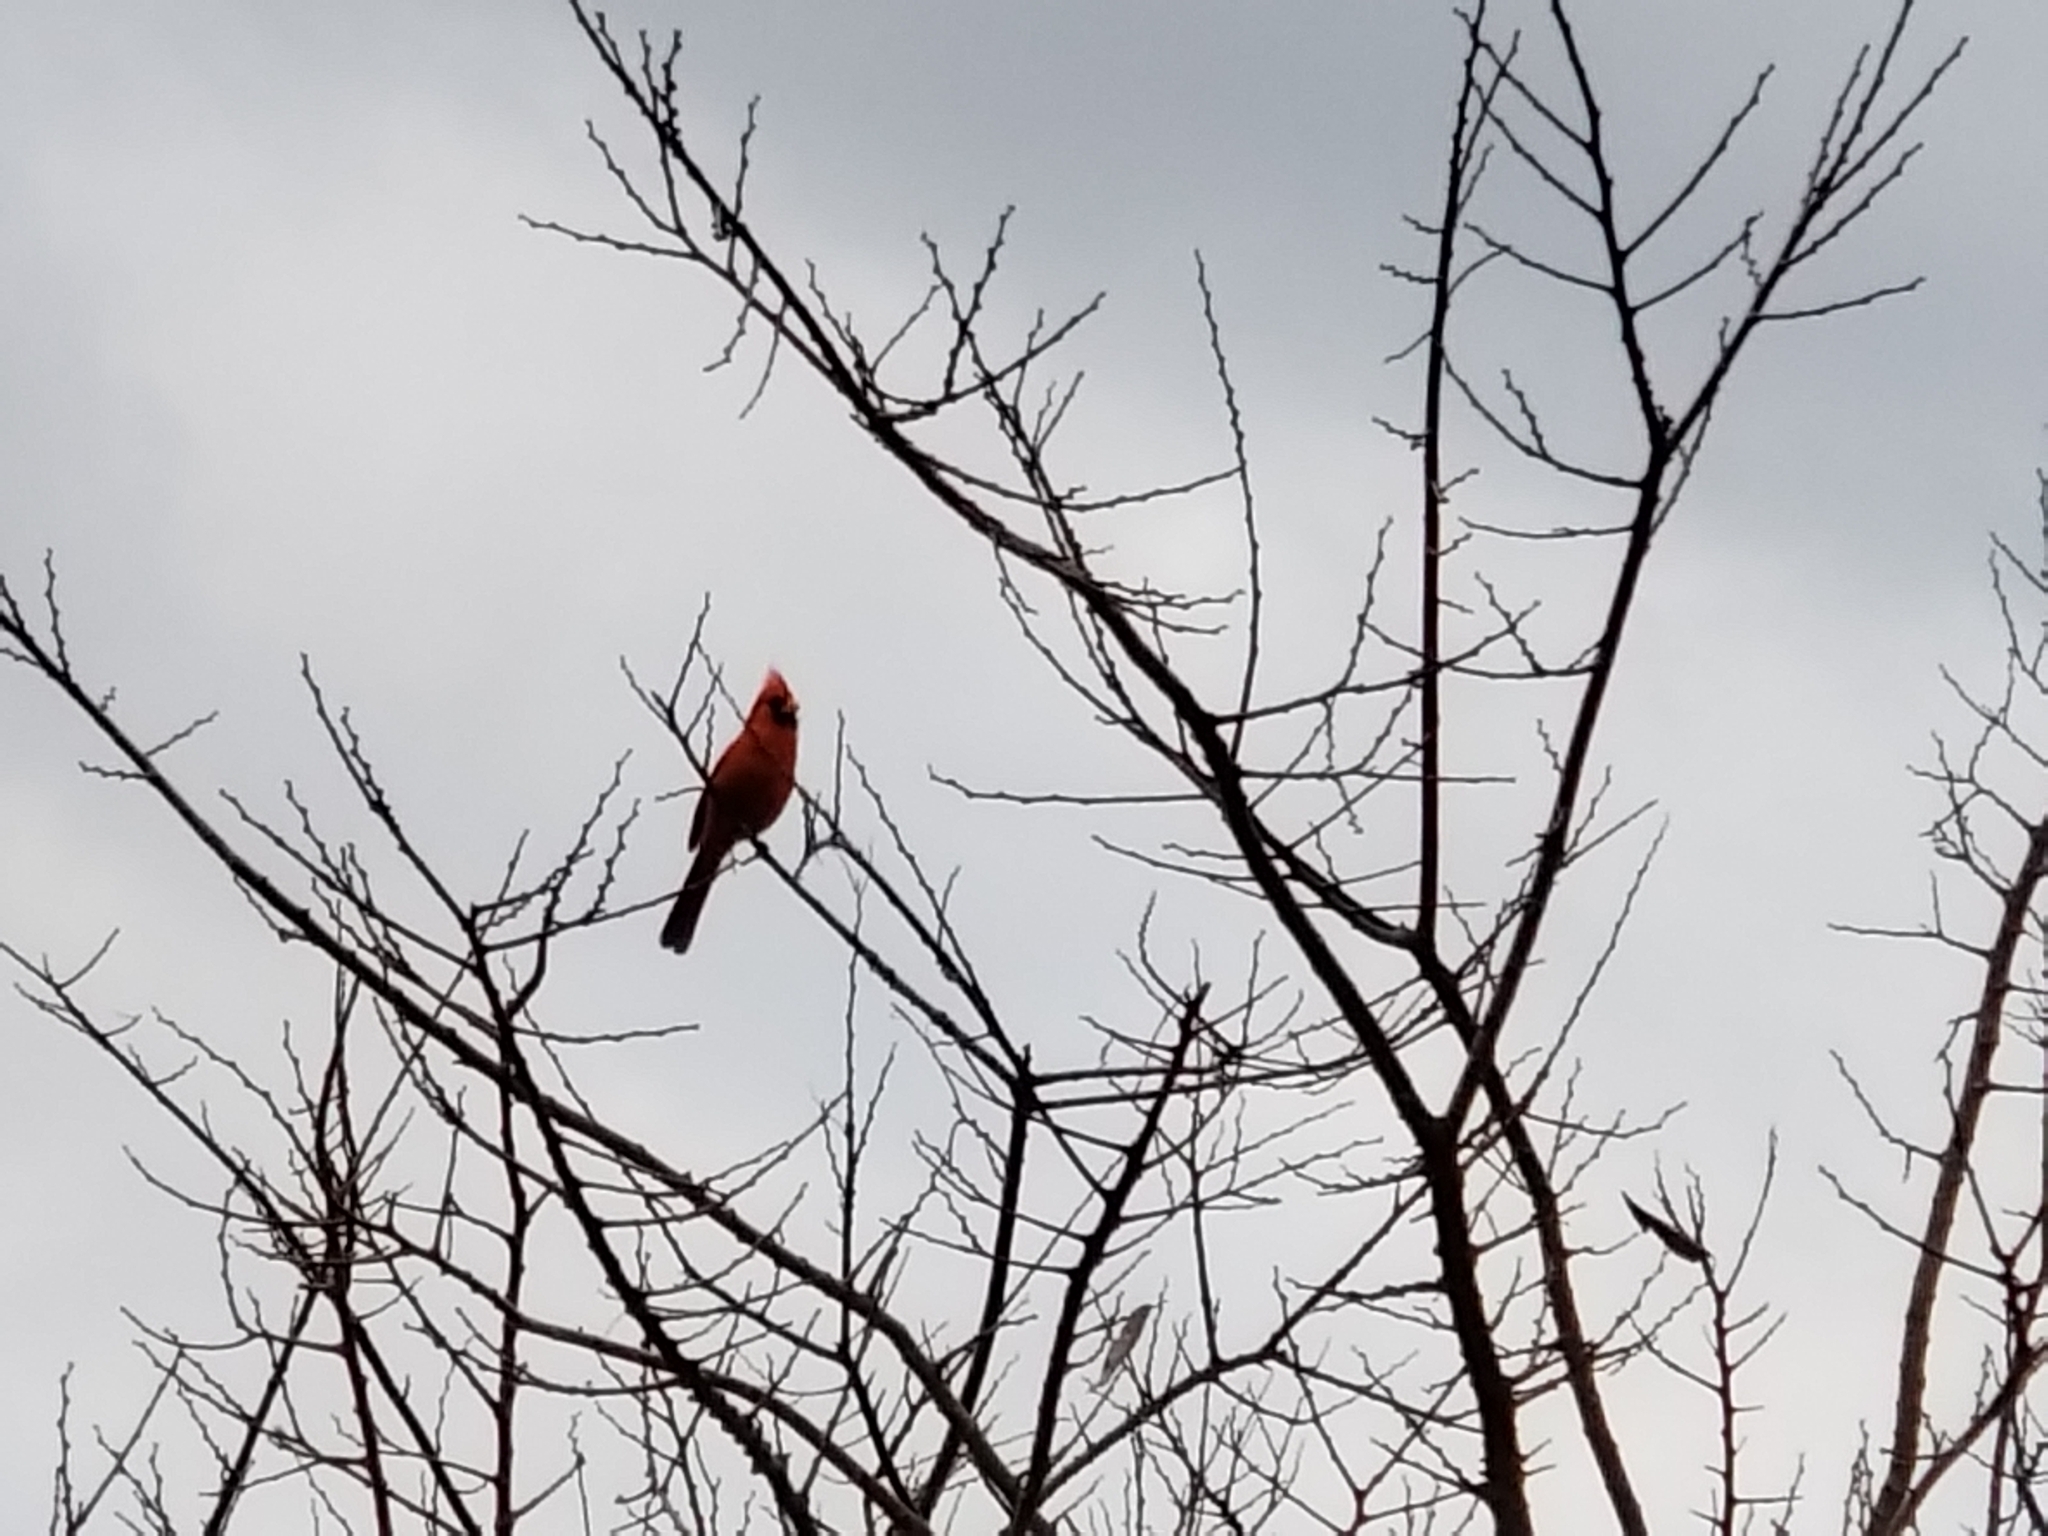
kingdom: Animalia
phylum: Chordata
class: Aves
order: Passeriformes
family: Cardinalidae
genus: Cardinalis
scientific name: Cardinalis cardinalis
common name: Northern cardinal
